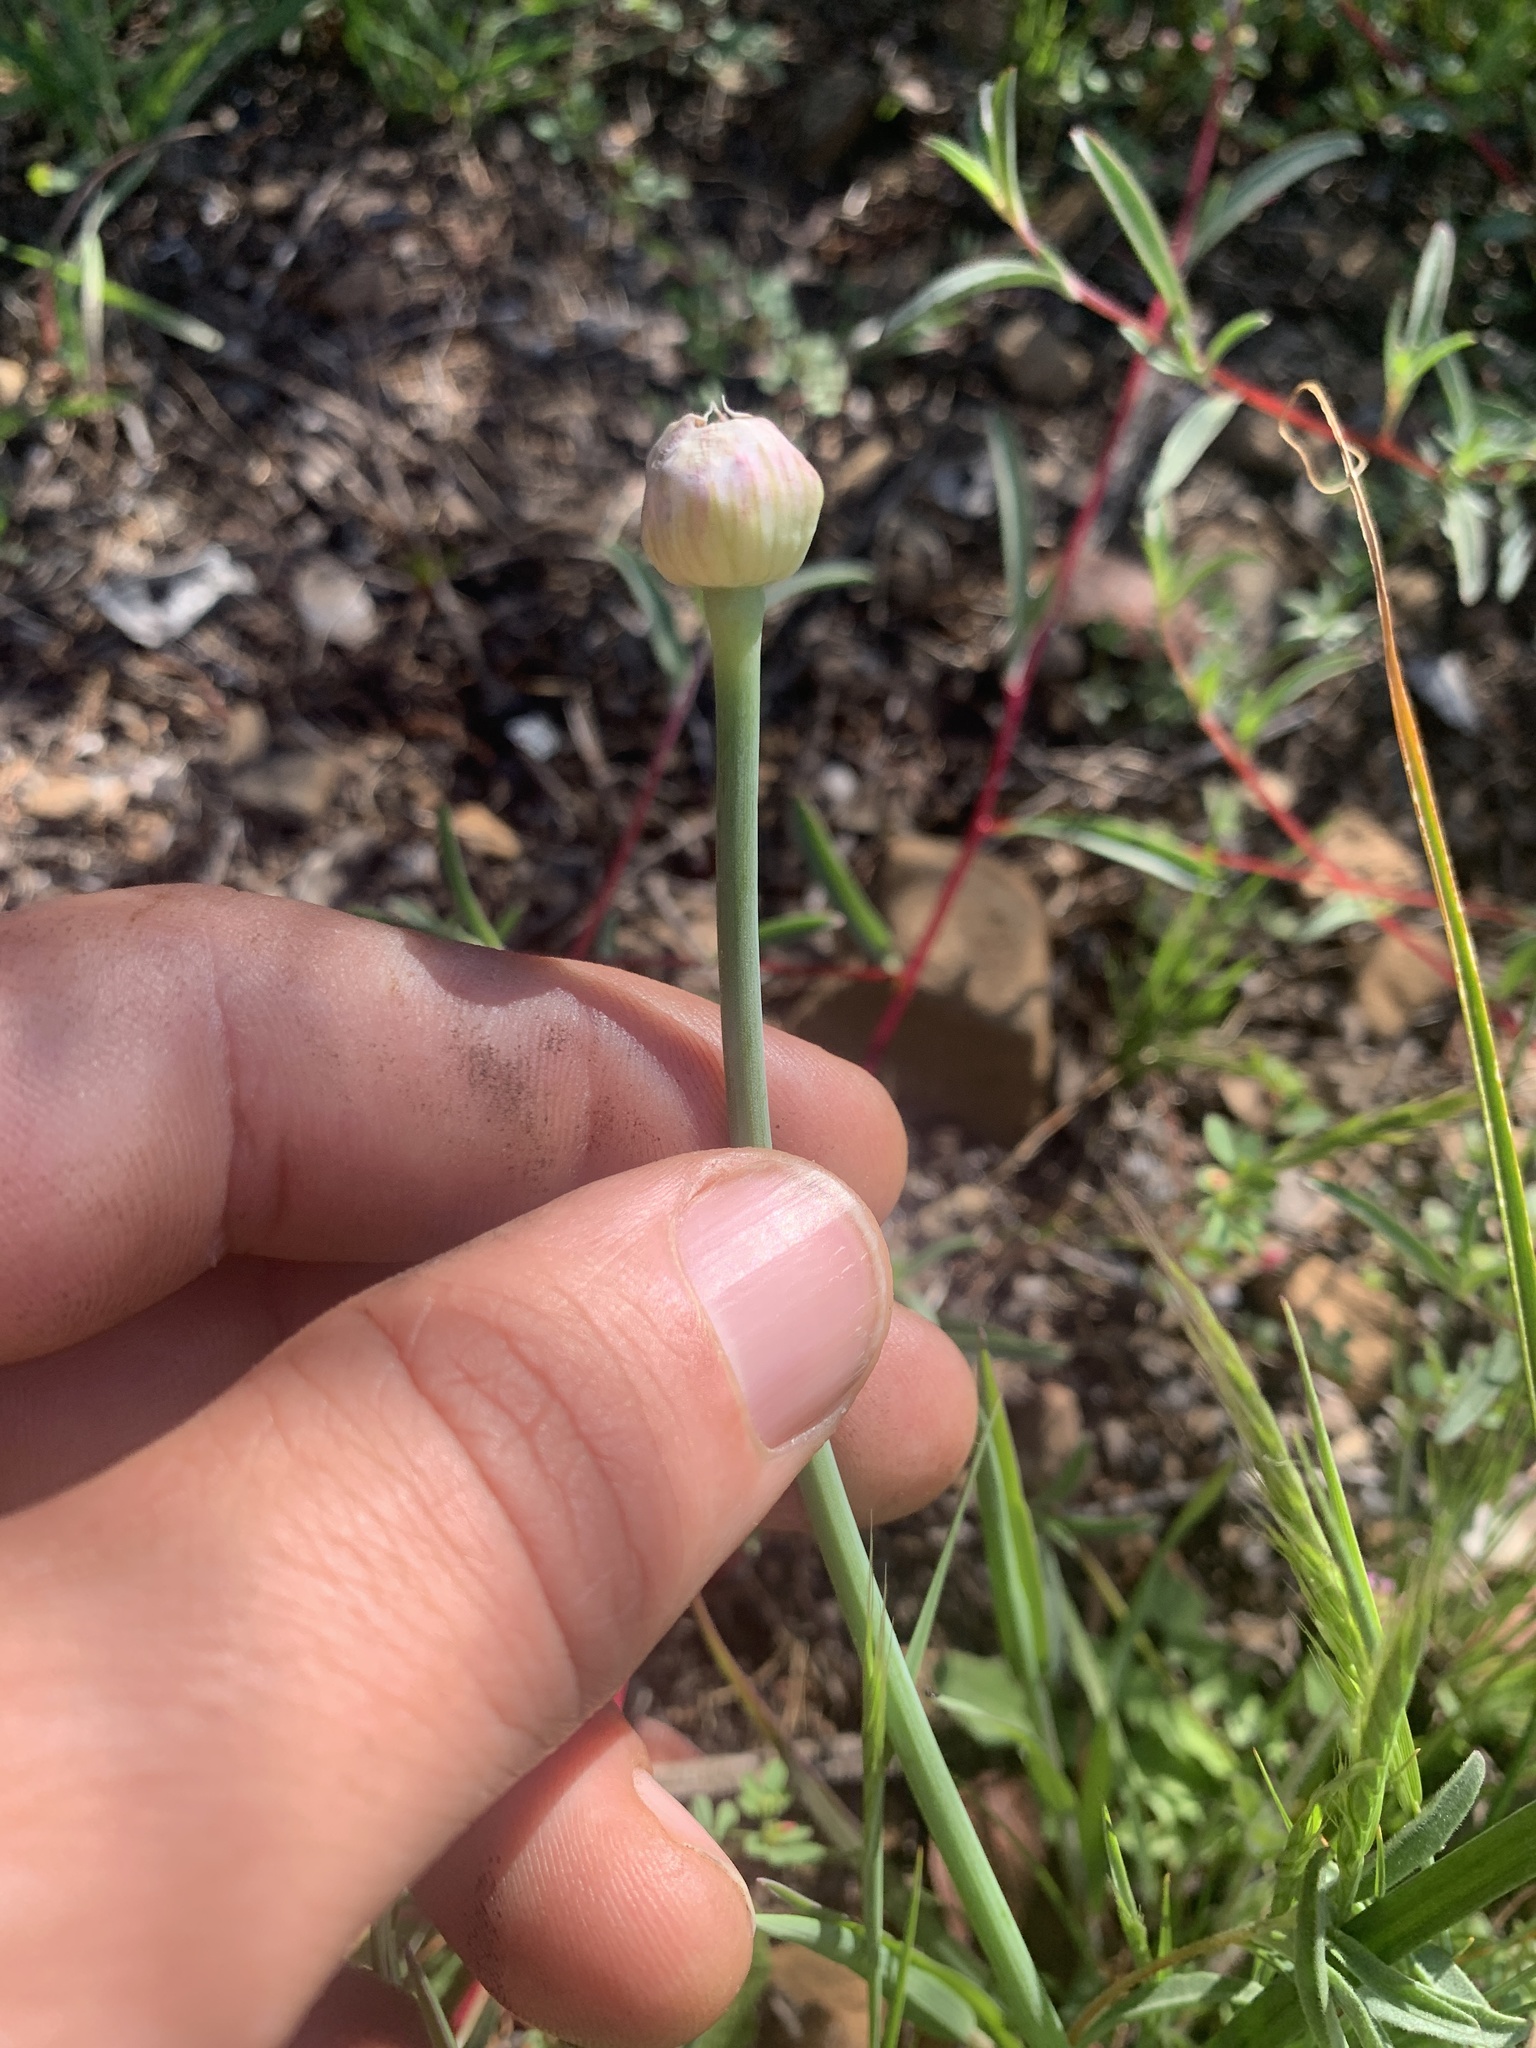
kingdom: Plantae
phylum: Tracheophyta
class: Liliopsida
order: Asparagales
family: Amaryllidaceae
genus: Allium
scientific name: Allium amplectens
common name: Narrow-leaved onion
